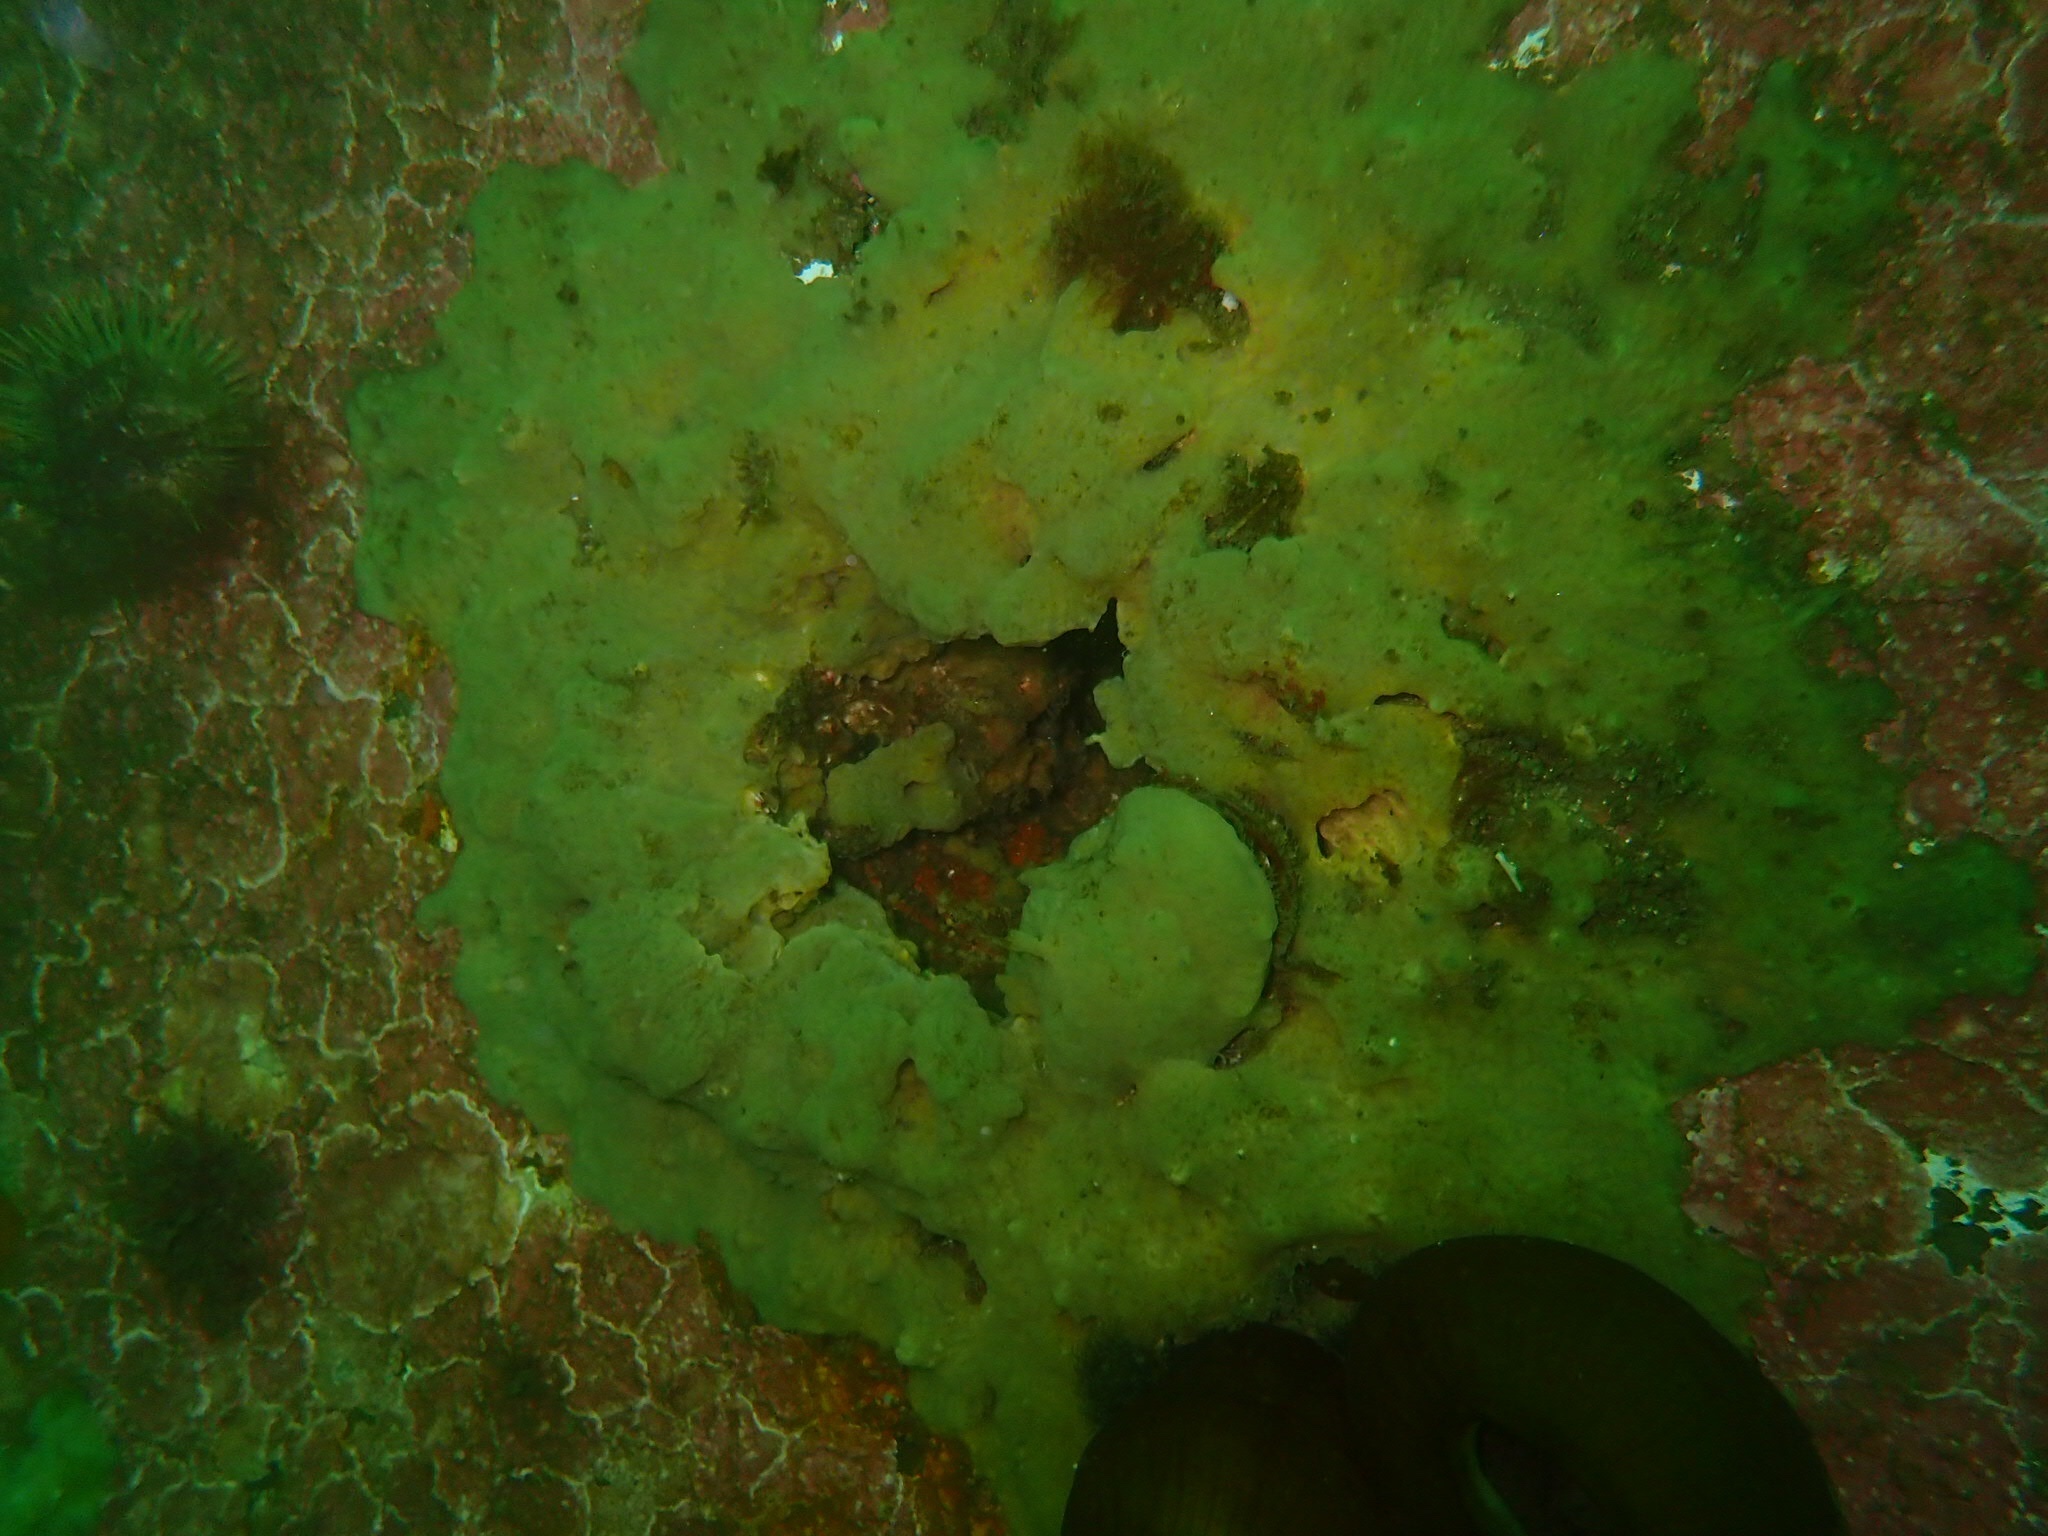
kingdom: Animalia
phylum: Porifera
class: Demospongiae
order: Suberitida
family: Halichondriidae
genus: Halichondria
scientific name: Halichondria panicea
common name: Breadcrumb sponge
